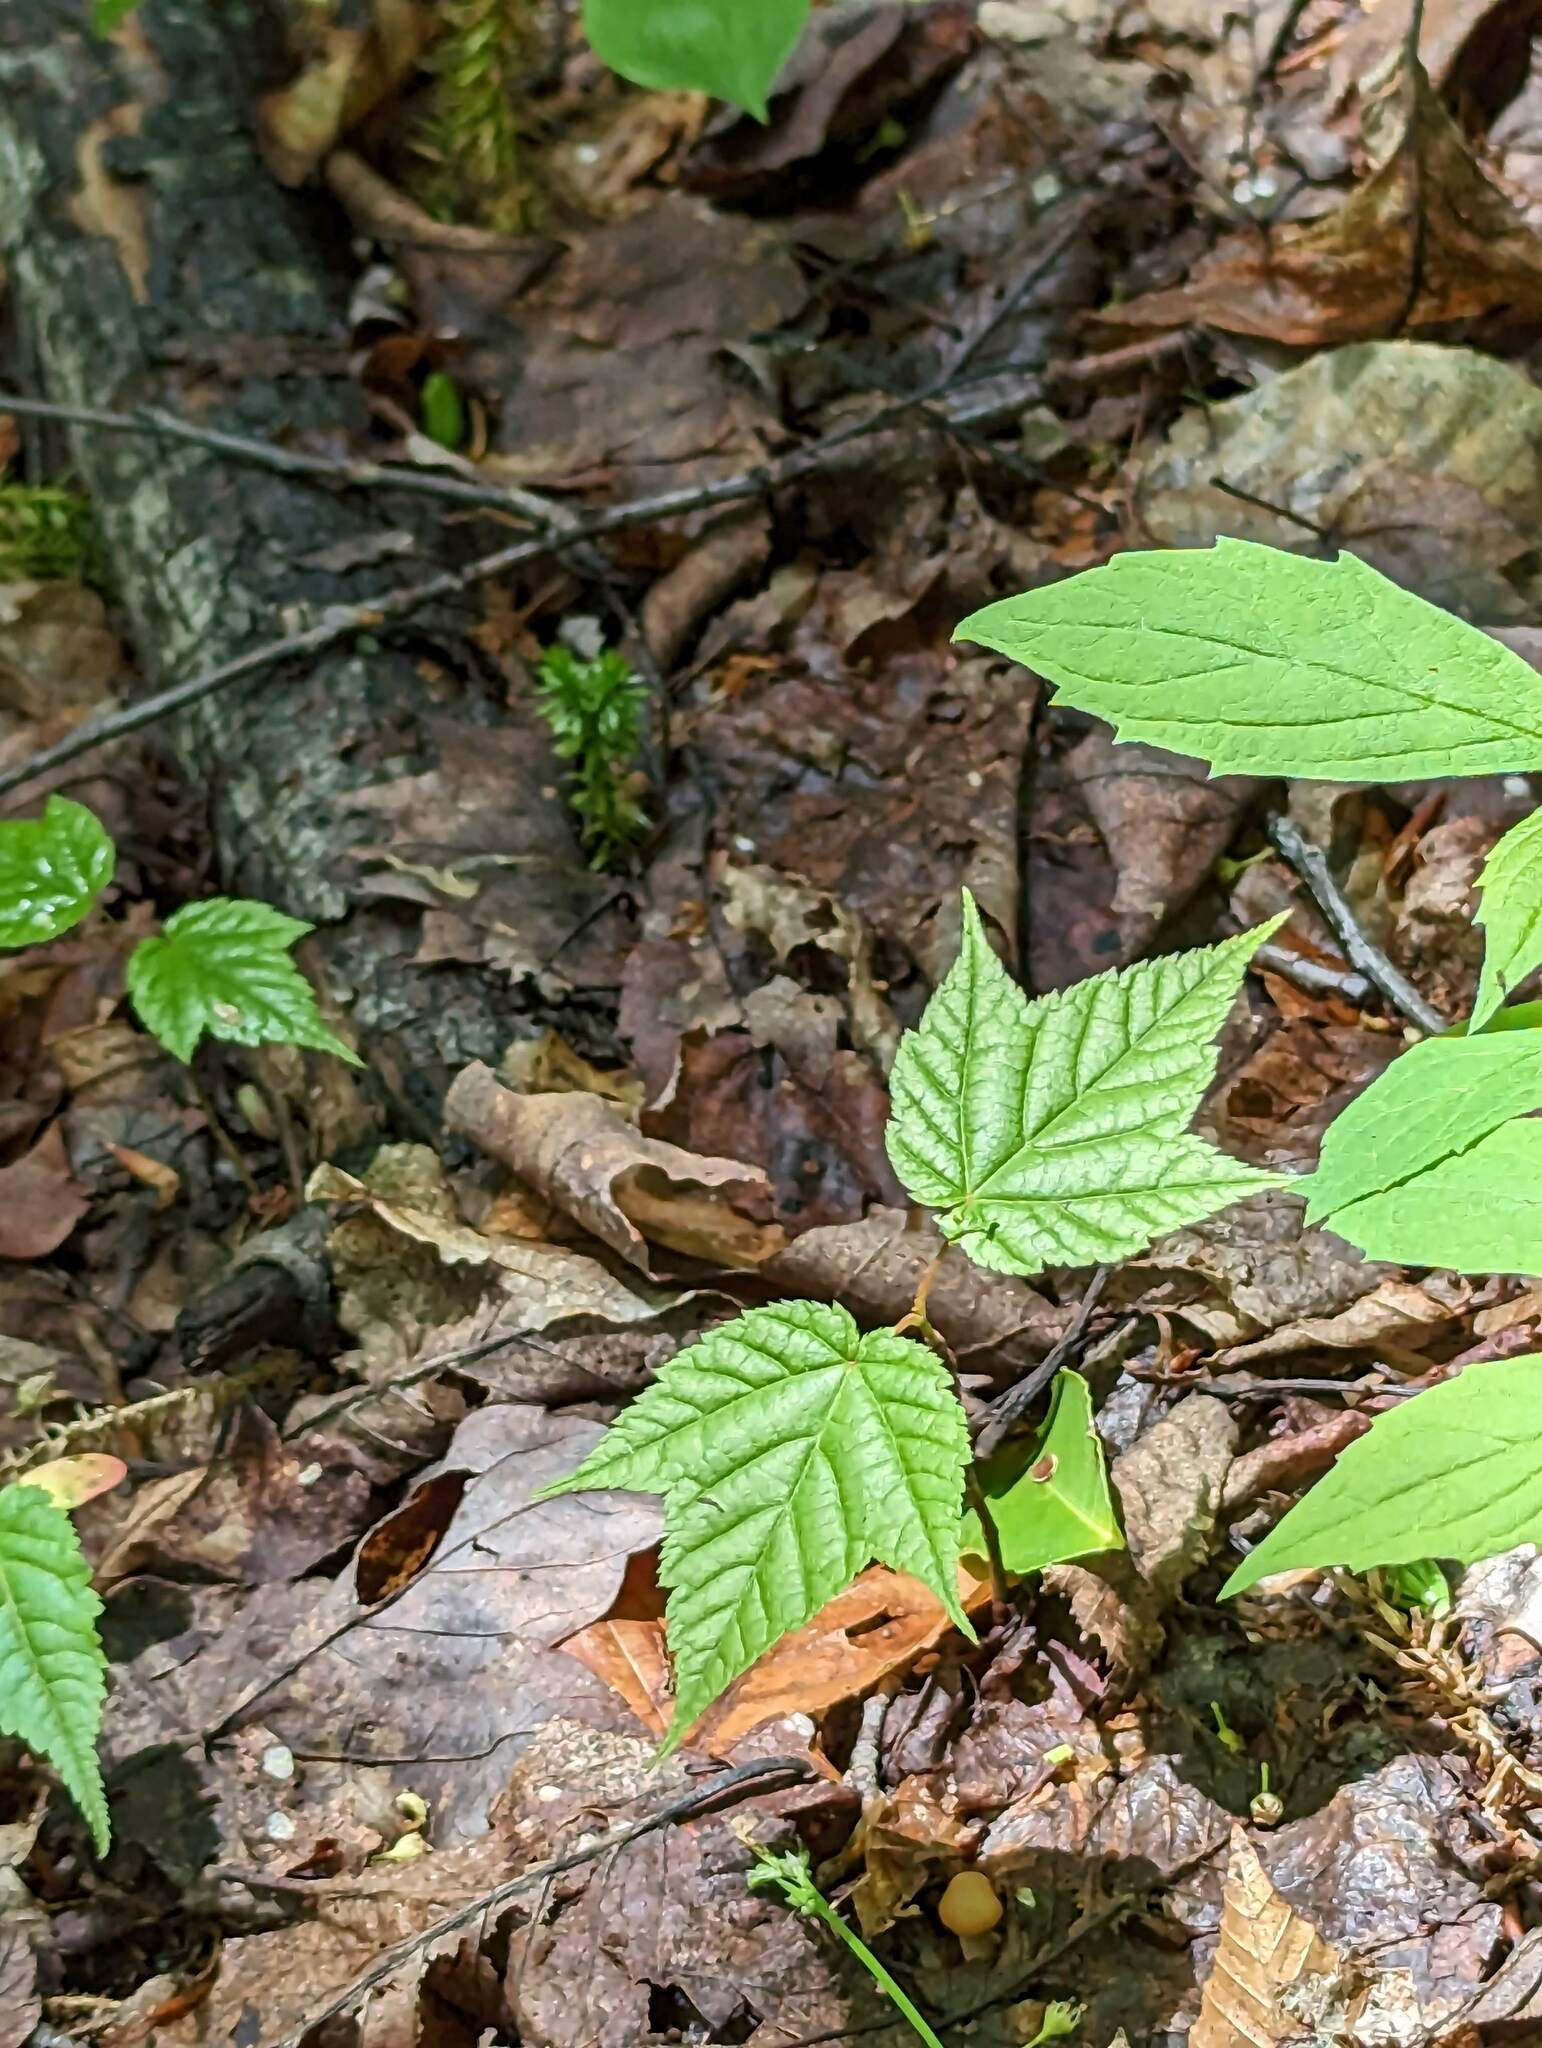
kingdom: Plantae
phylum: Tracheophyta
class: Magnoliopsida
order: Sapindales
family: Sapindaceae
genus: Acer
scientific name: Acer pensylvanicum
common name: Moosewood
